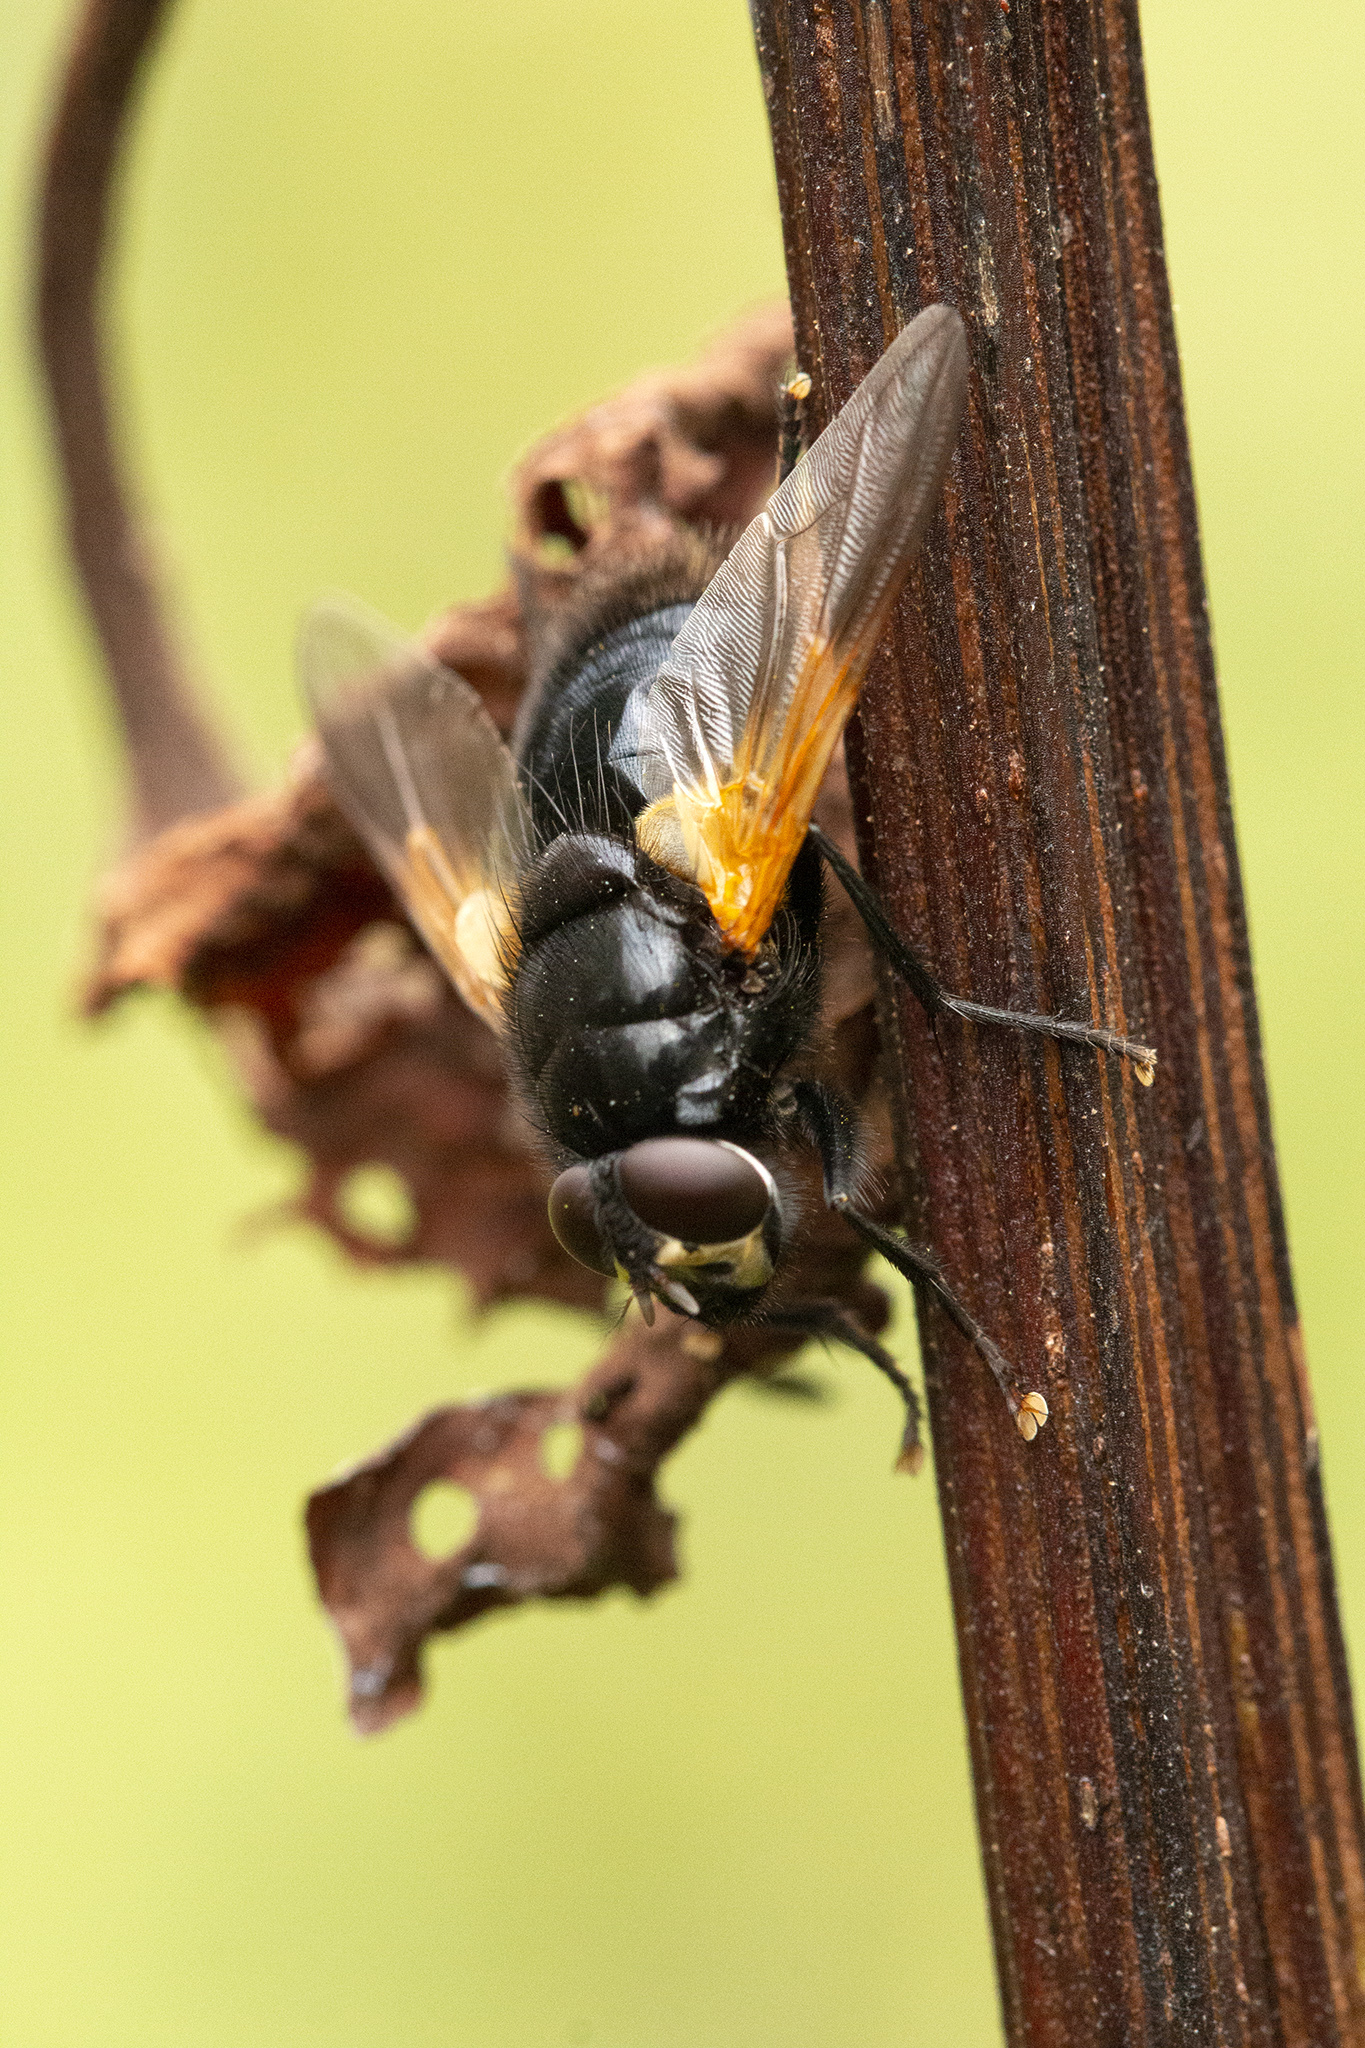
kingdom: Animalia
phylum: Arthropoda
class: Insecta
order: Diptera
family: Muscidae
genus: Mesembrina
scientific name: Mesembrina meridiana
